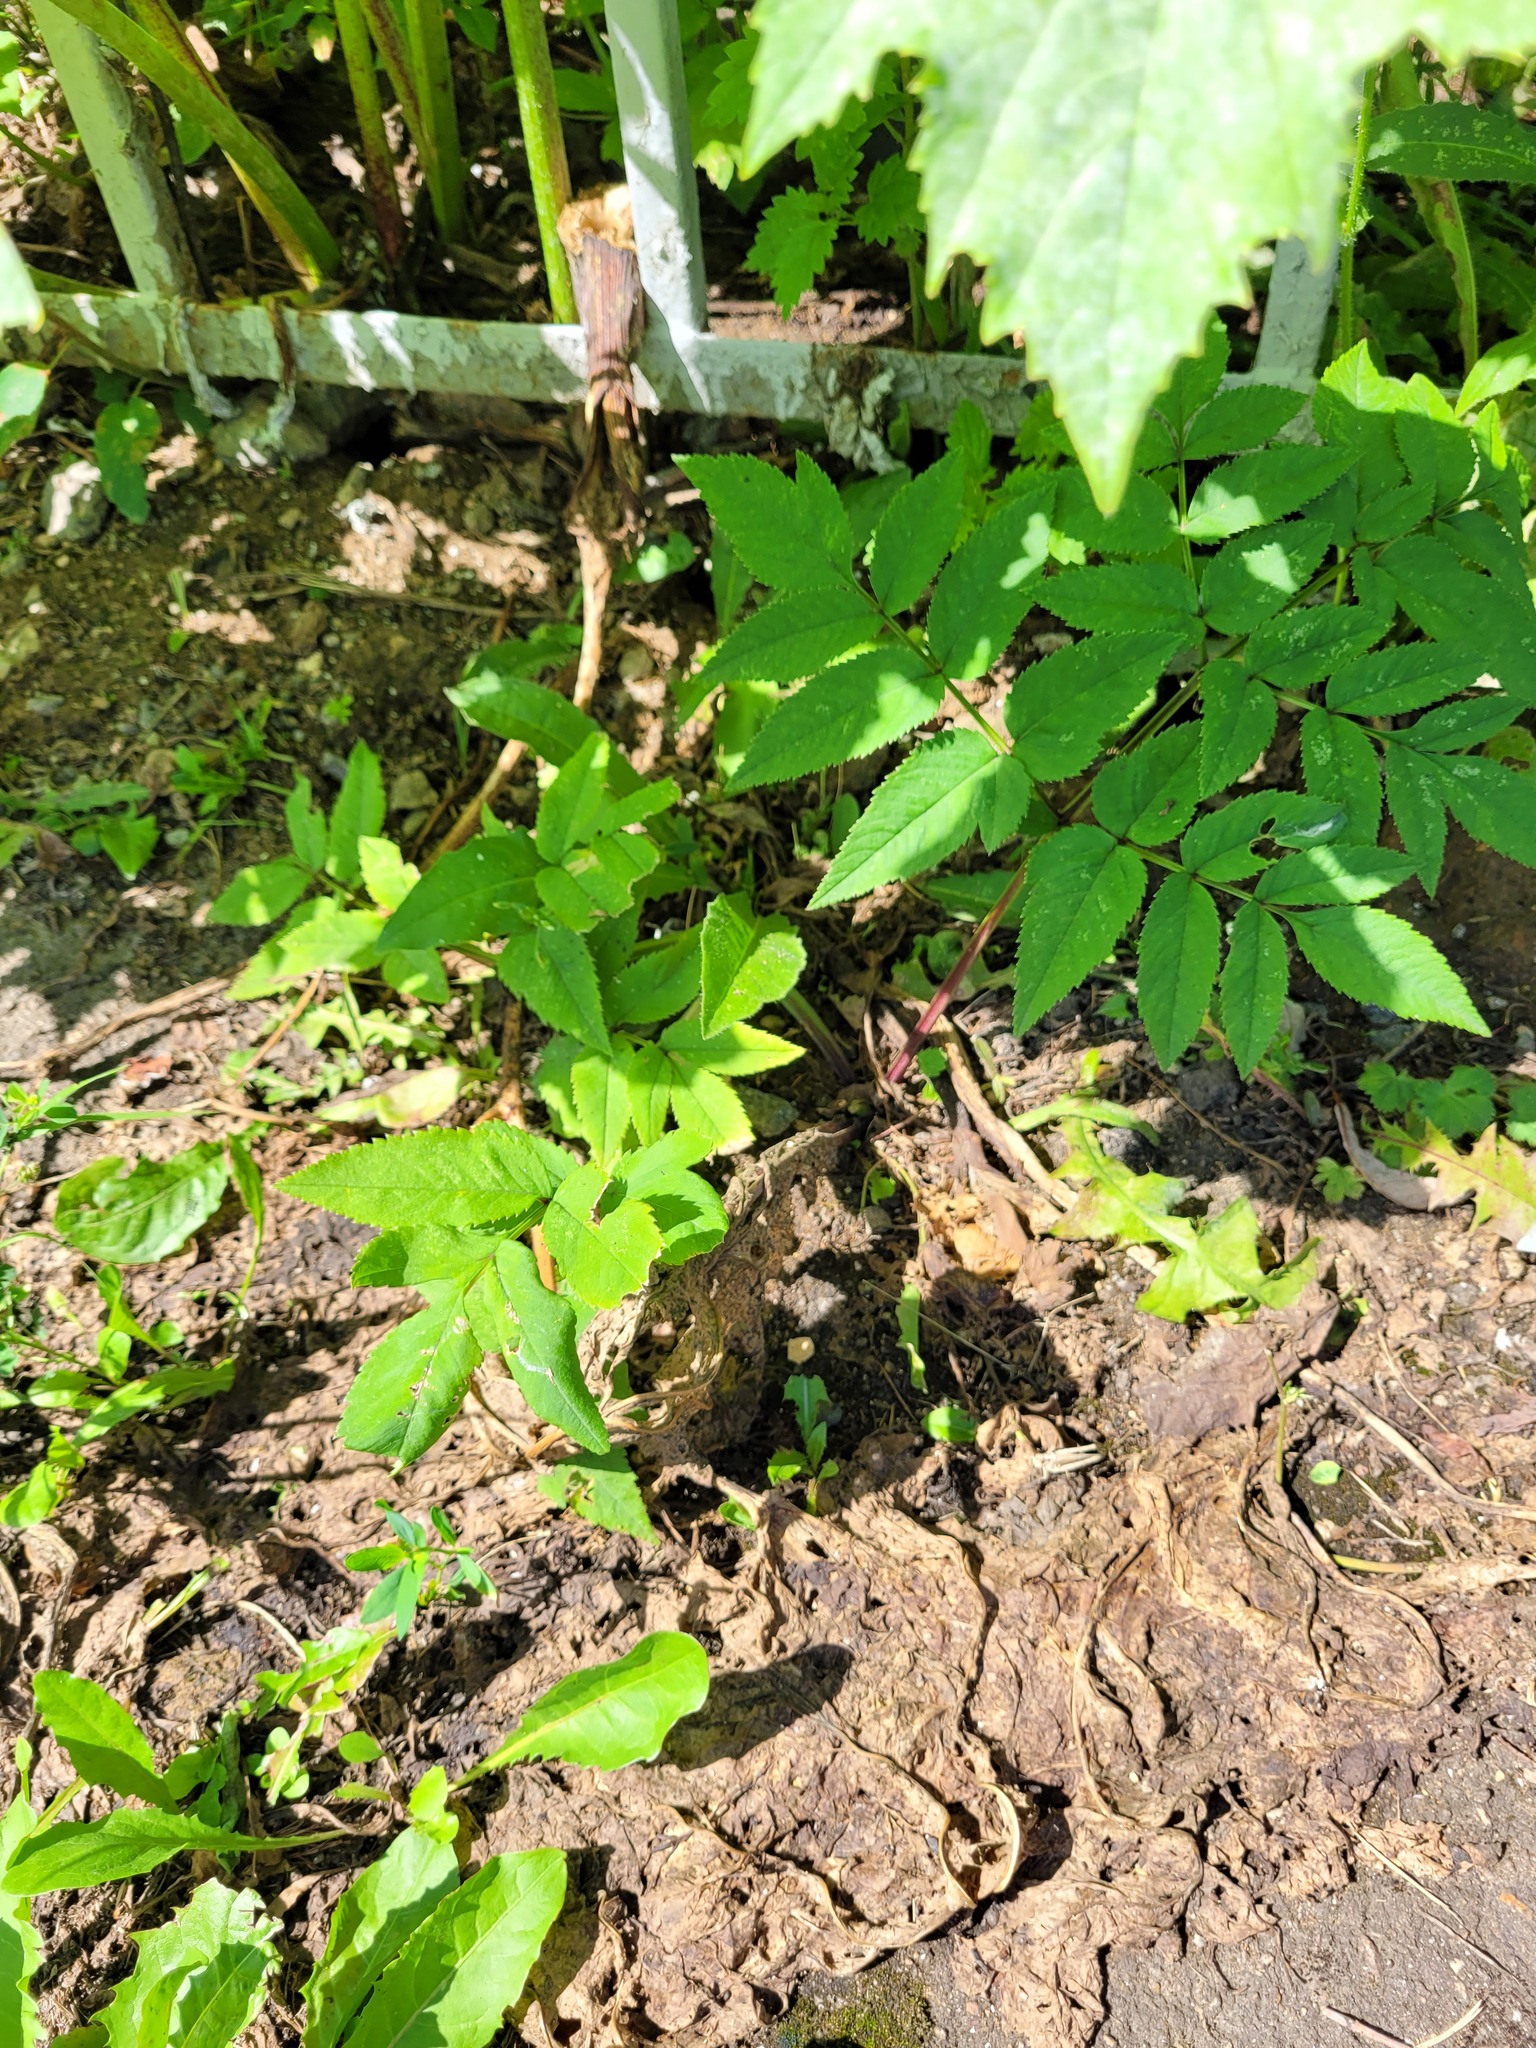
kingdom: Plantae
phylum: Tracheophyta
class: Magnoliopsida
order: Apiales
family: Apiaceae
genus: Angelica
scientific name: Angelica sylvestris
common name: Wild angelica
